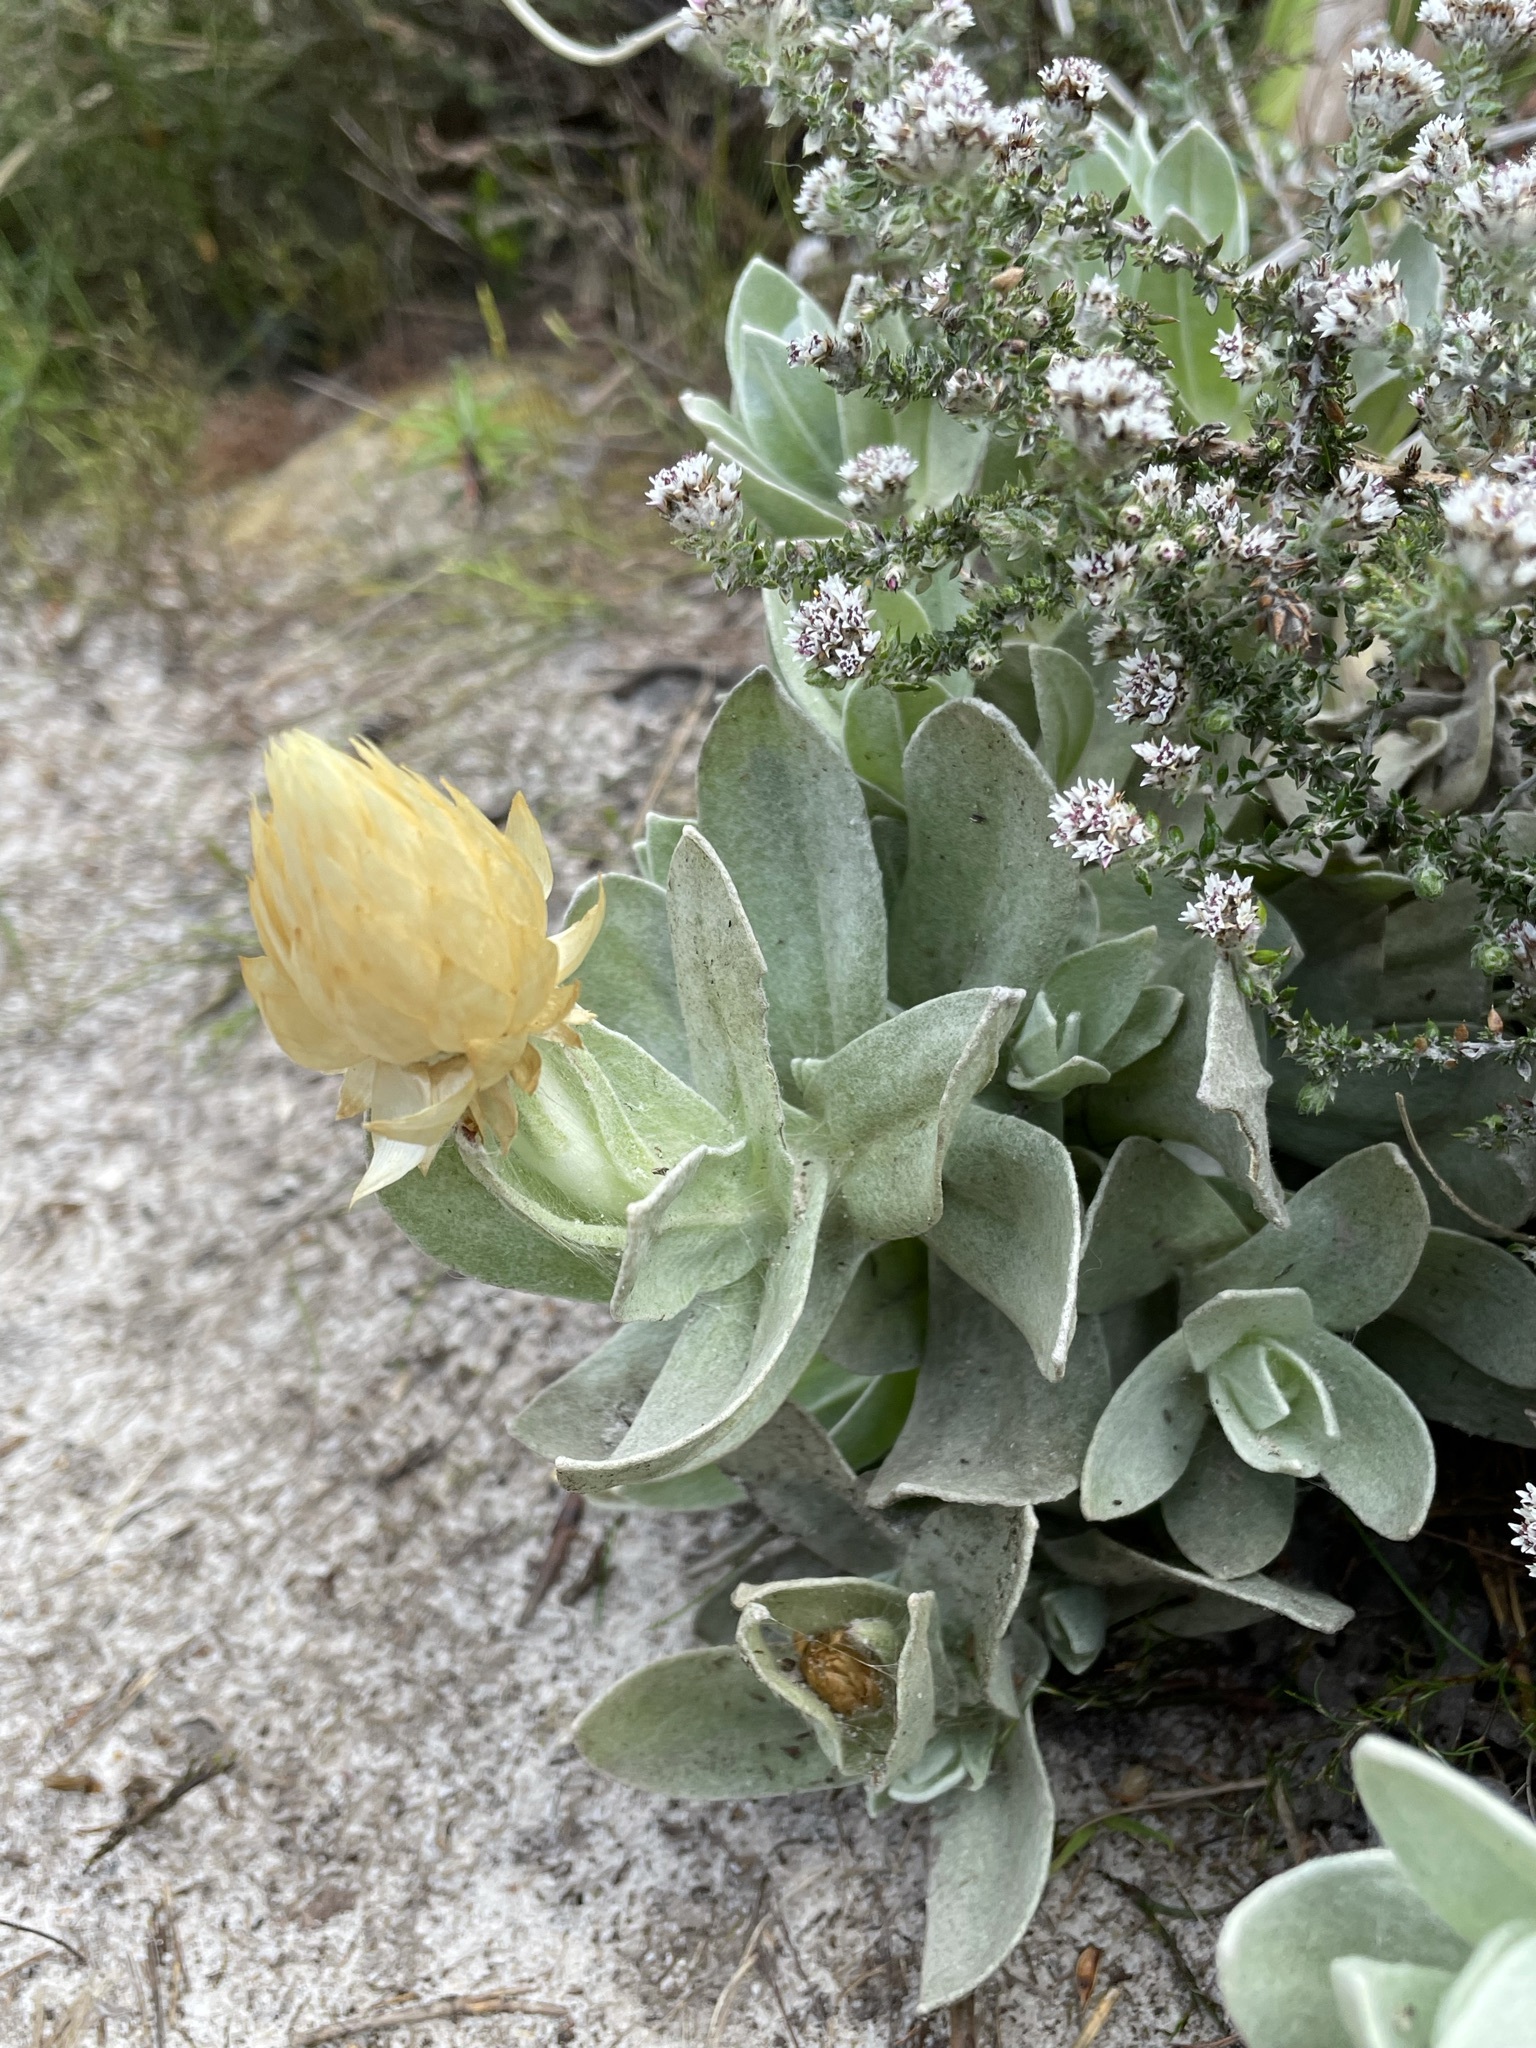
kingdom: Plantae
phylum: Tracheophyta
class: Magnoliopsida
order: Asterales
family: Asteraceae
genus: Syncarpha
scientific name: Syncarpha speciosissima
